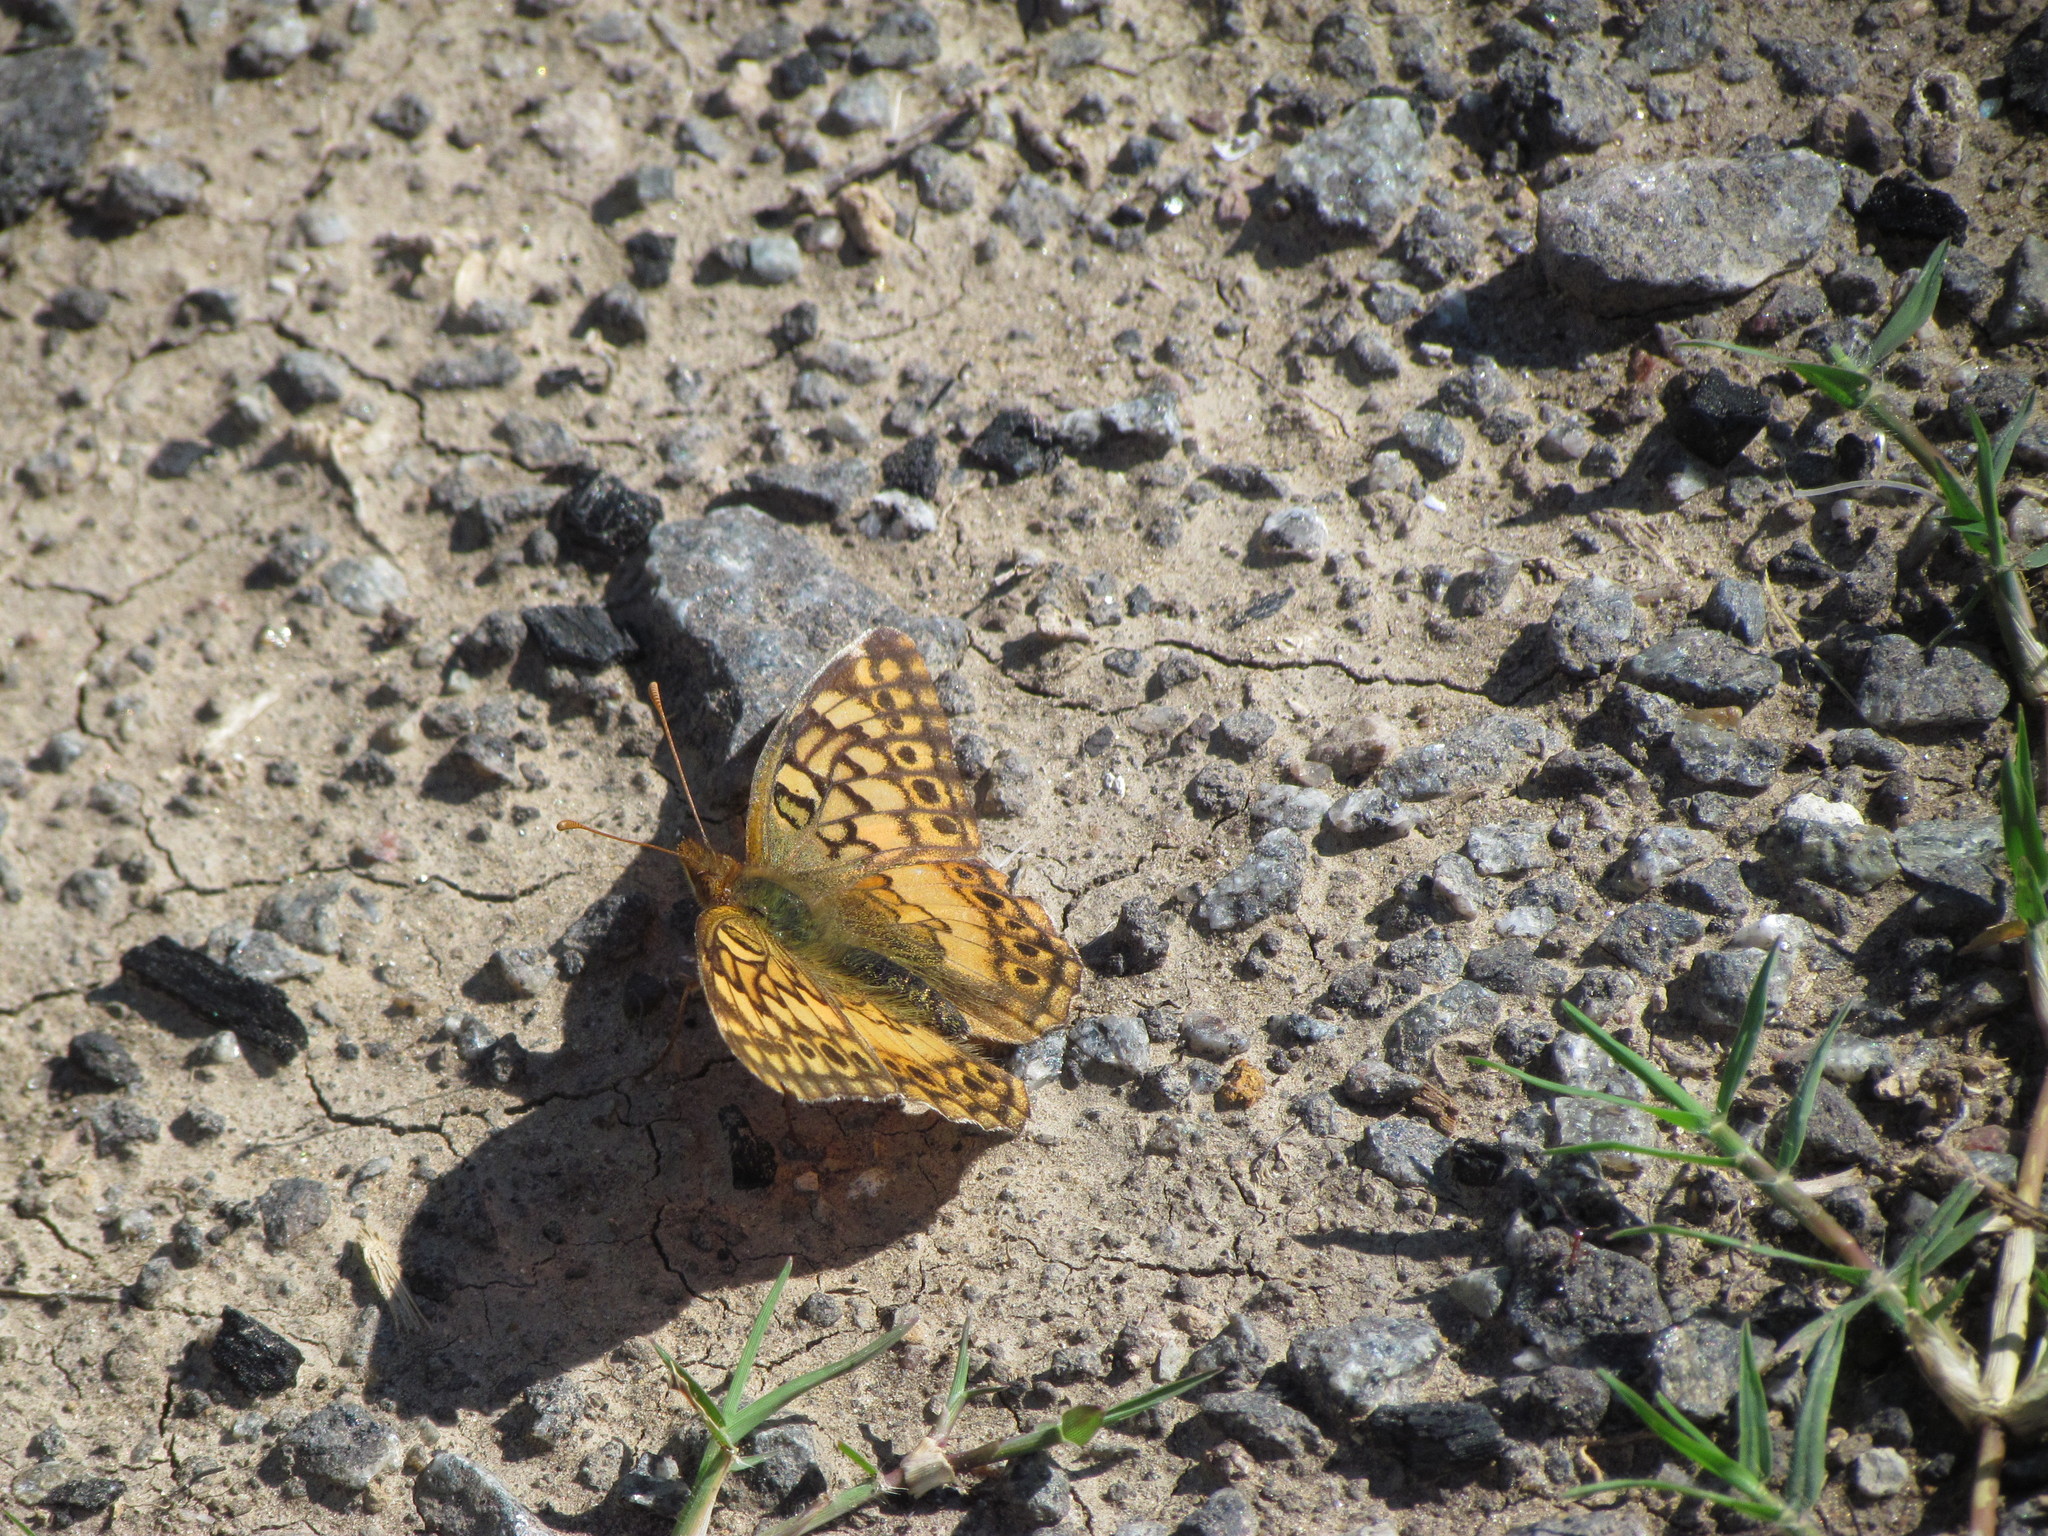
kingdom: Animalia
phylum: Arthropoda
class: Insecta
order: Lepidoptera
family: Nymphalidae
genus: Euptoieta
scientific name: Euptoieta hortensia
